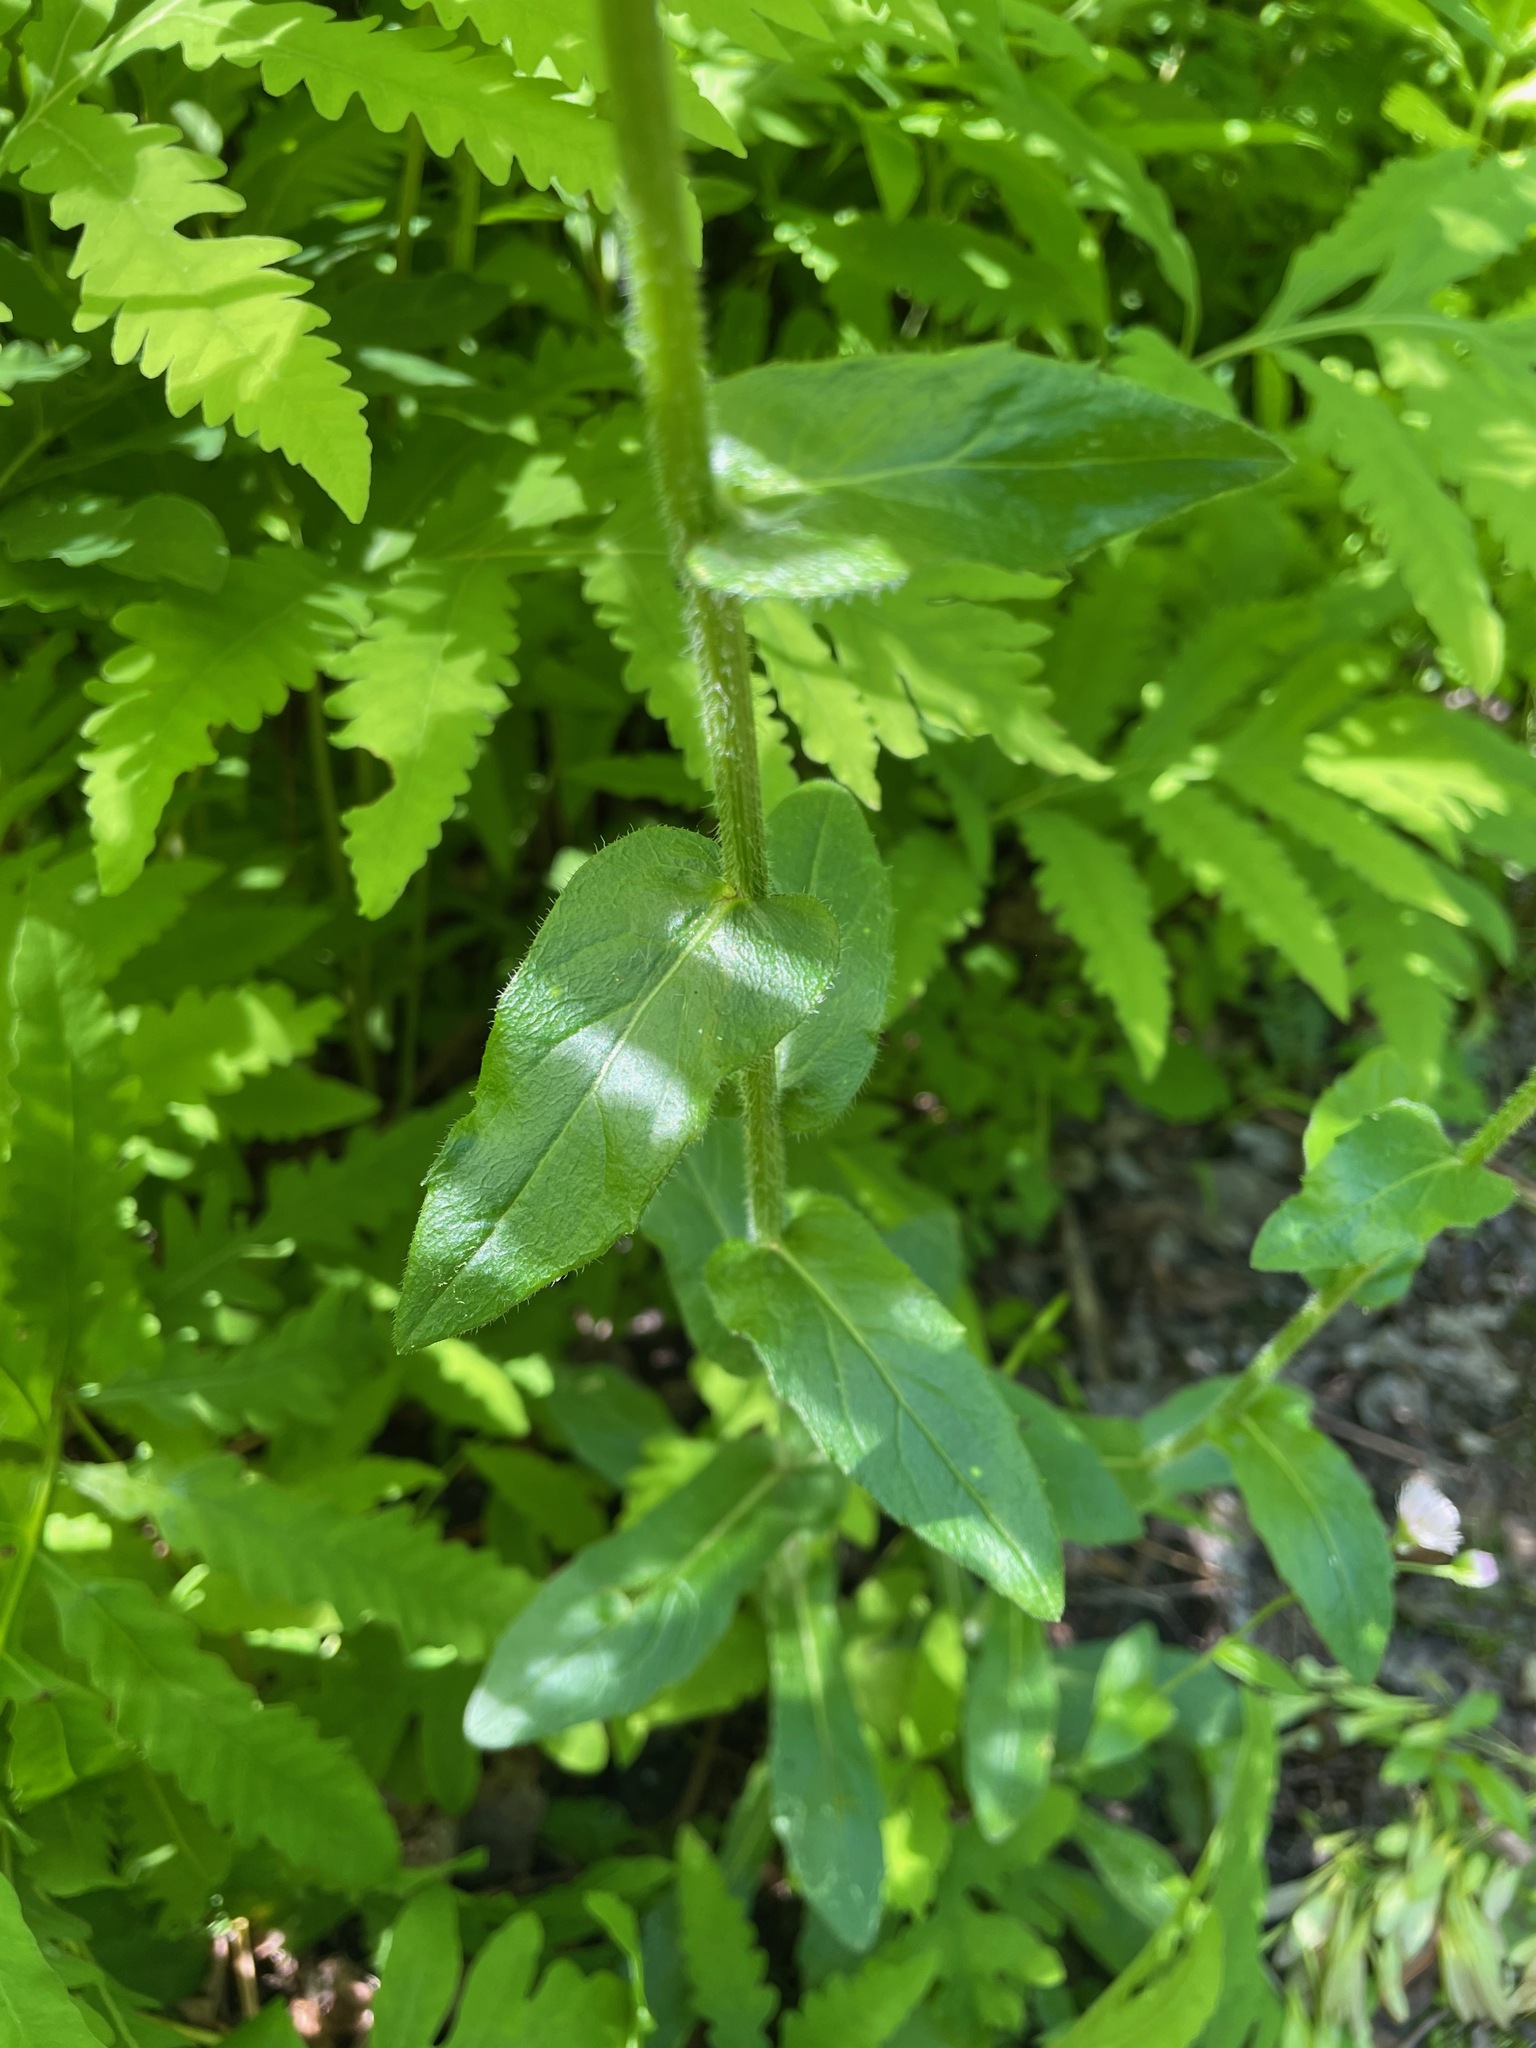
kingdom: Plantae
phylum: Tracheophyta
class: Magnoliopsida
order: Asterales
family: Asteraceae
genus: Erigeron
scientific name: Erigeron philadelphicus
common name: Robin's-plantain
